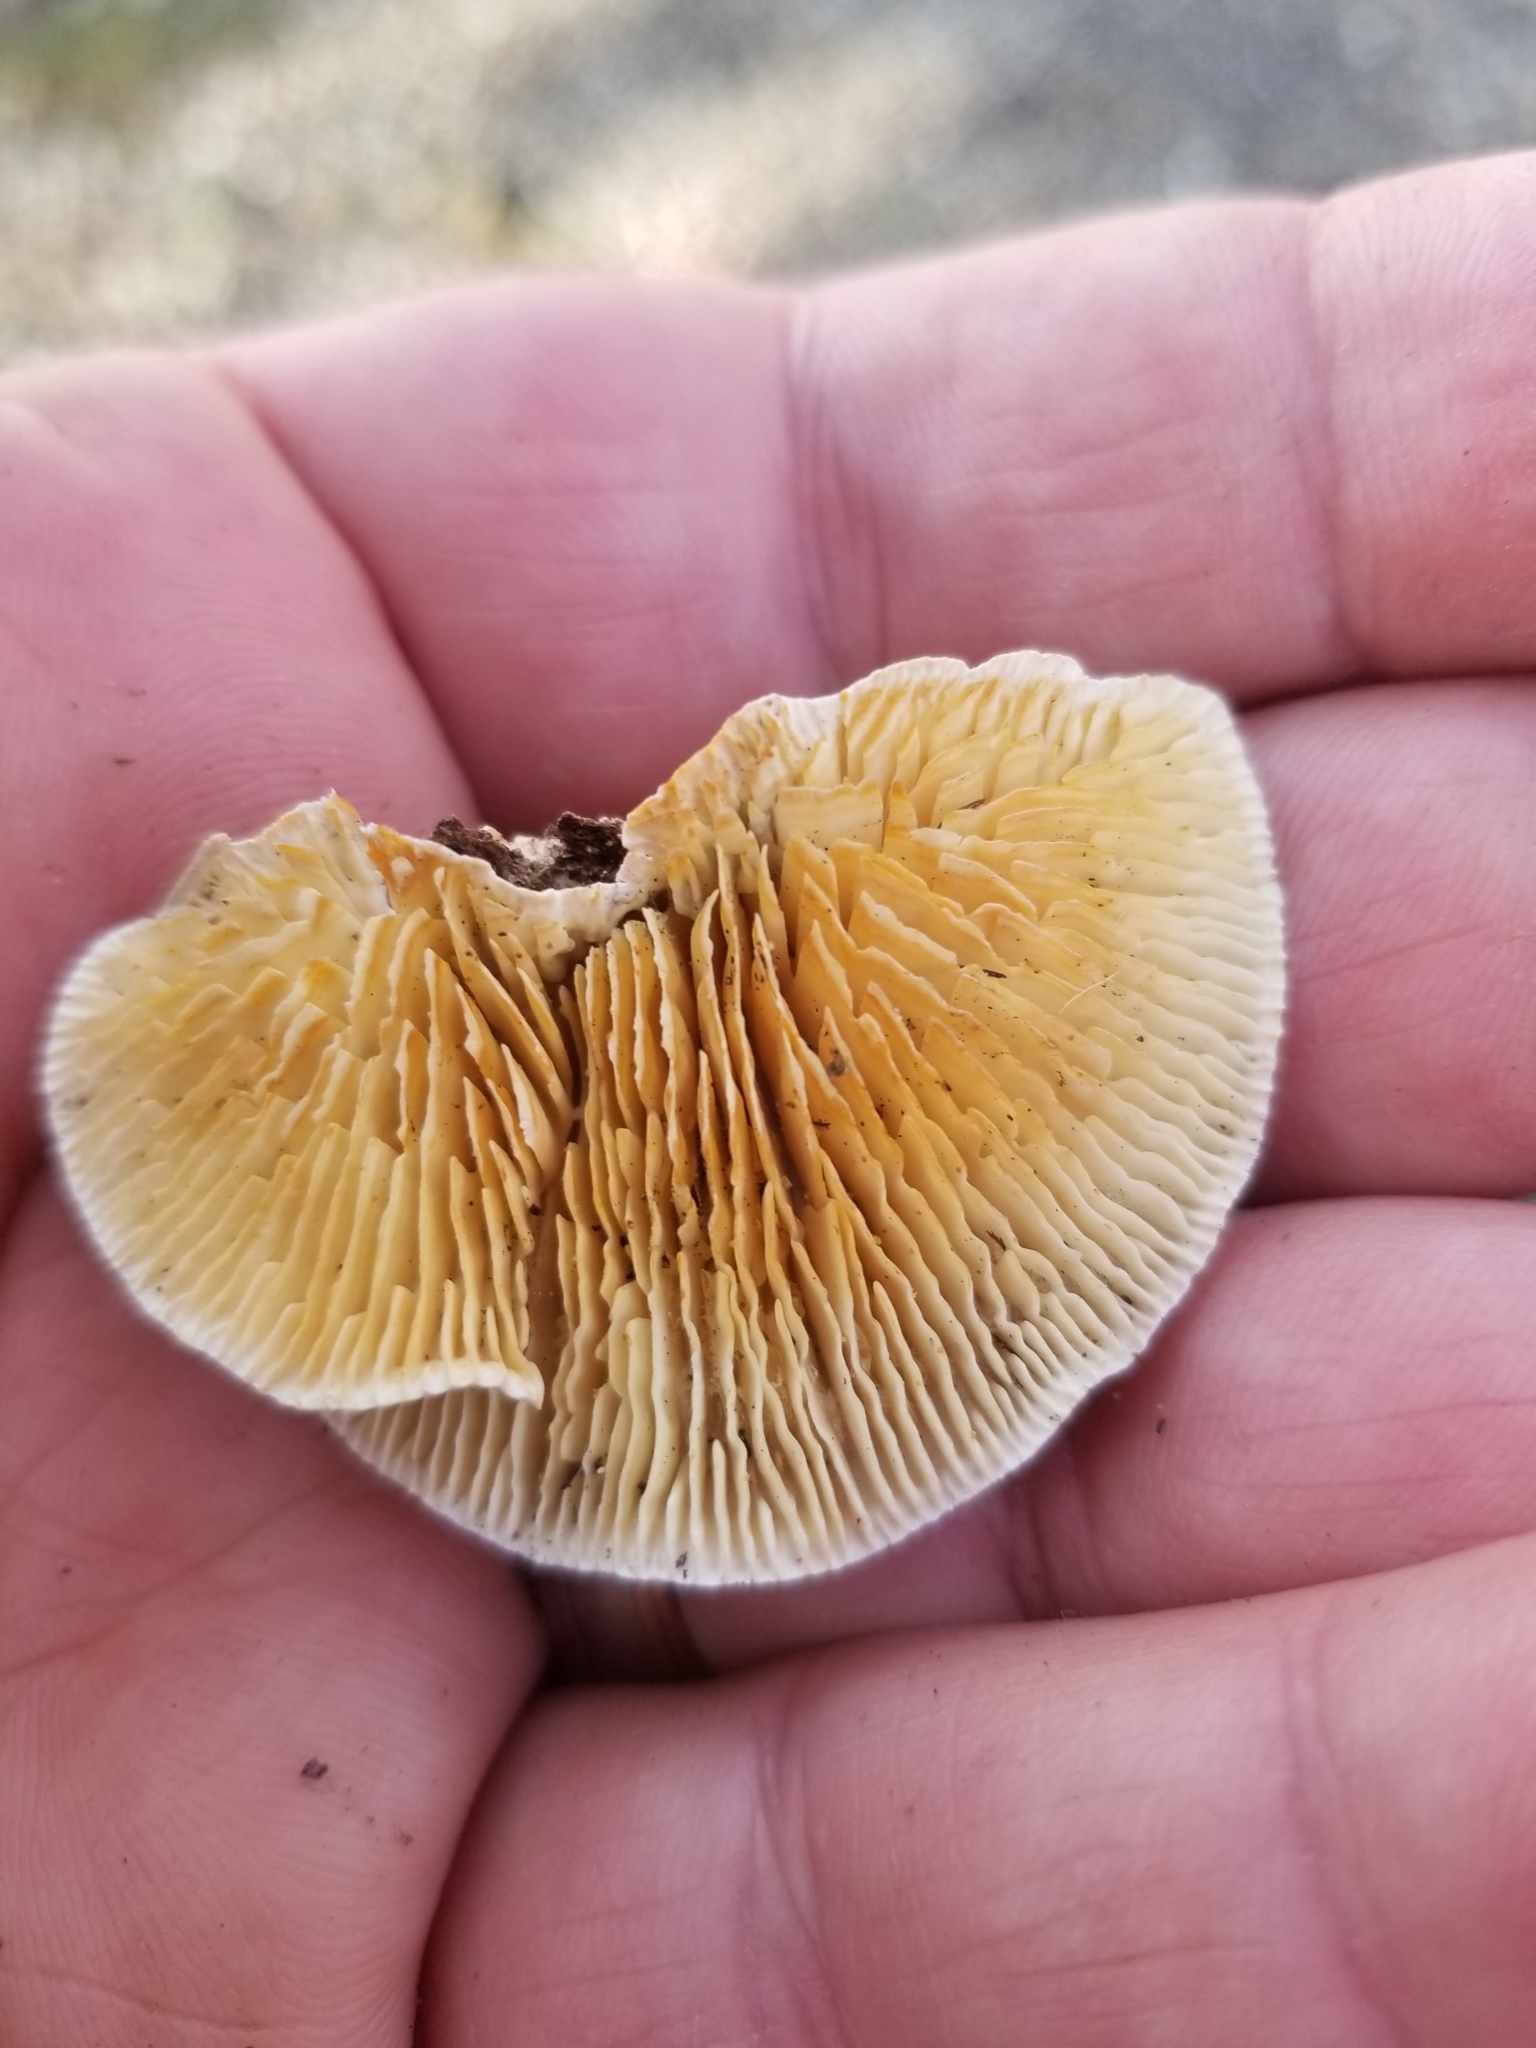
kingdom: Fungi
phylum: Basidiomycota
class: Agaricomycetes
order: Polyporales
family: Polyporaceae
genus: Lenzites
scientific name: Lenzites betulinus
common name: Birch mazegill
